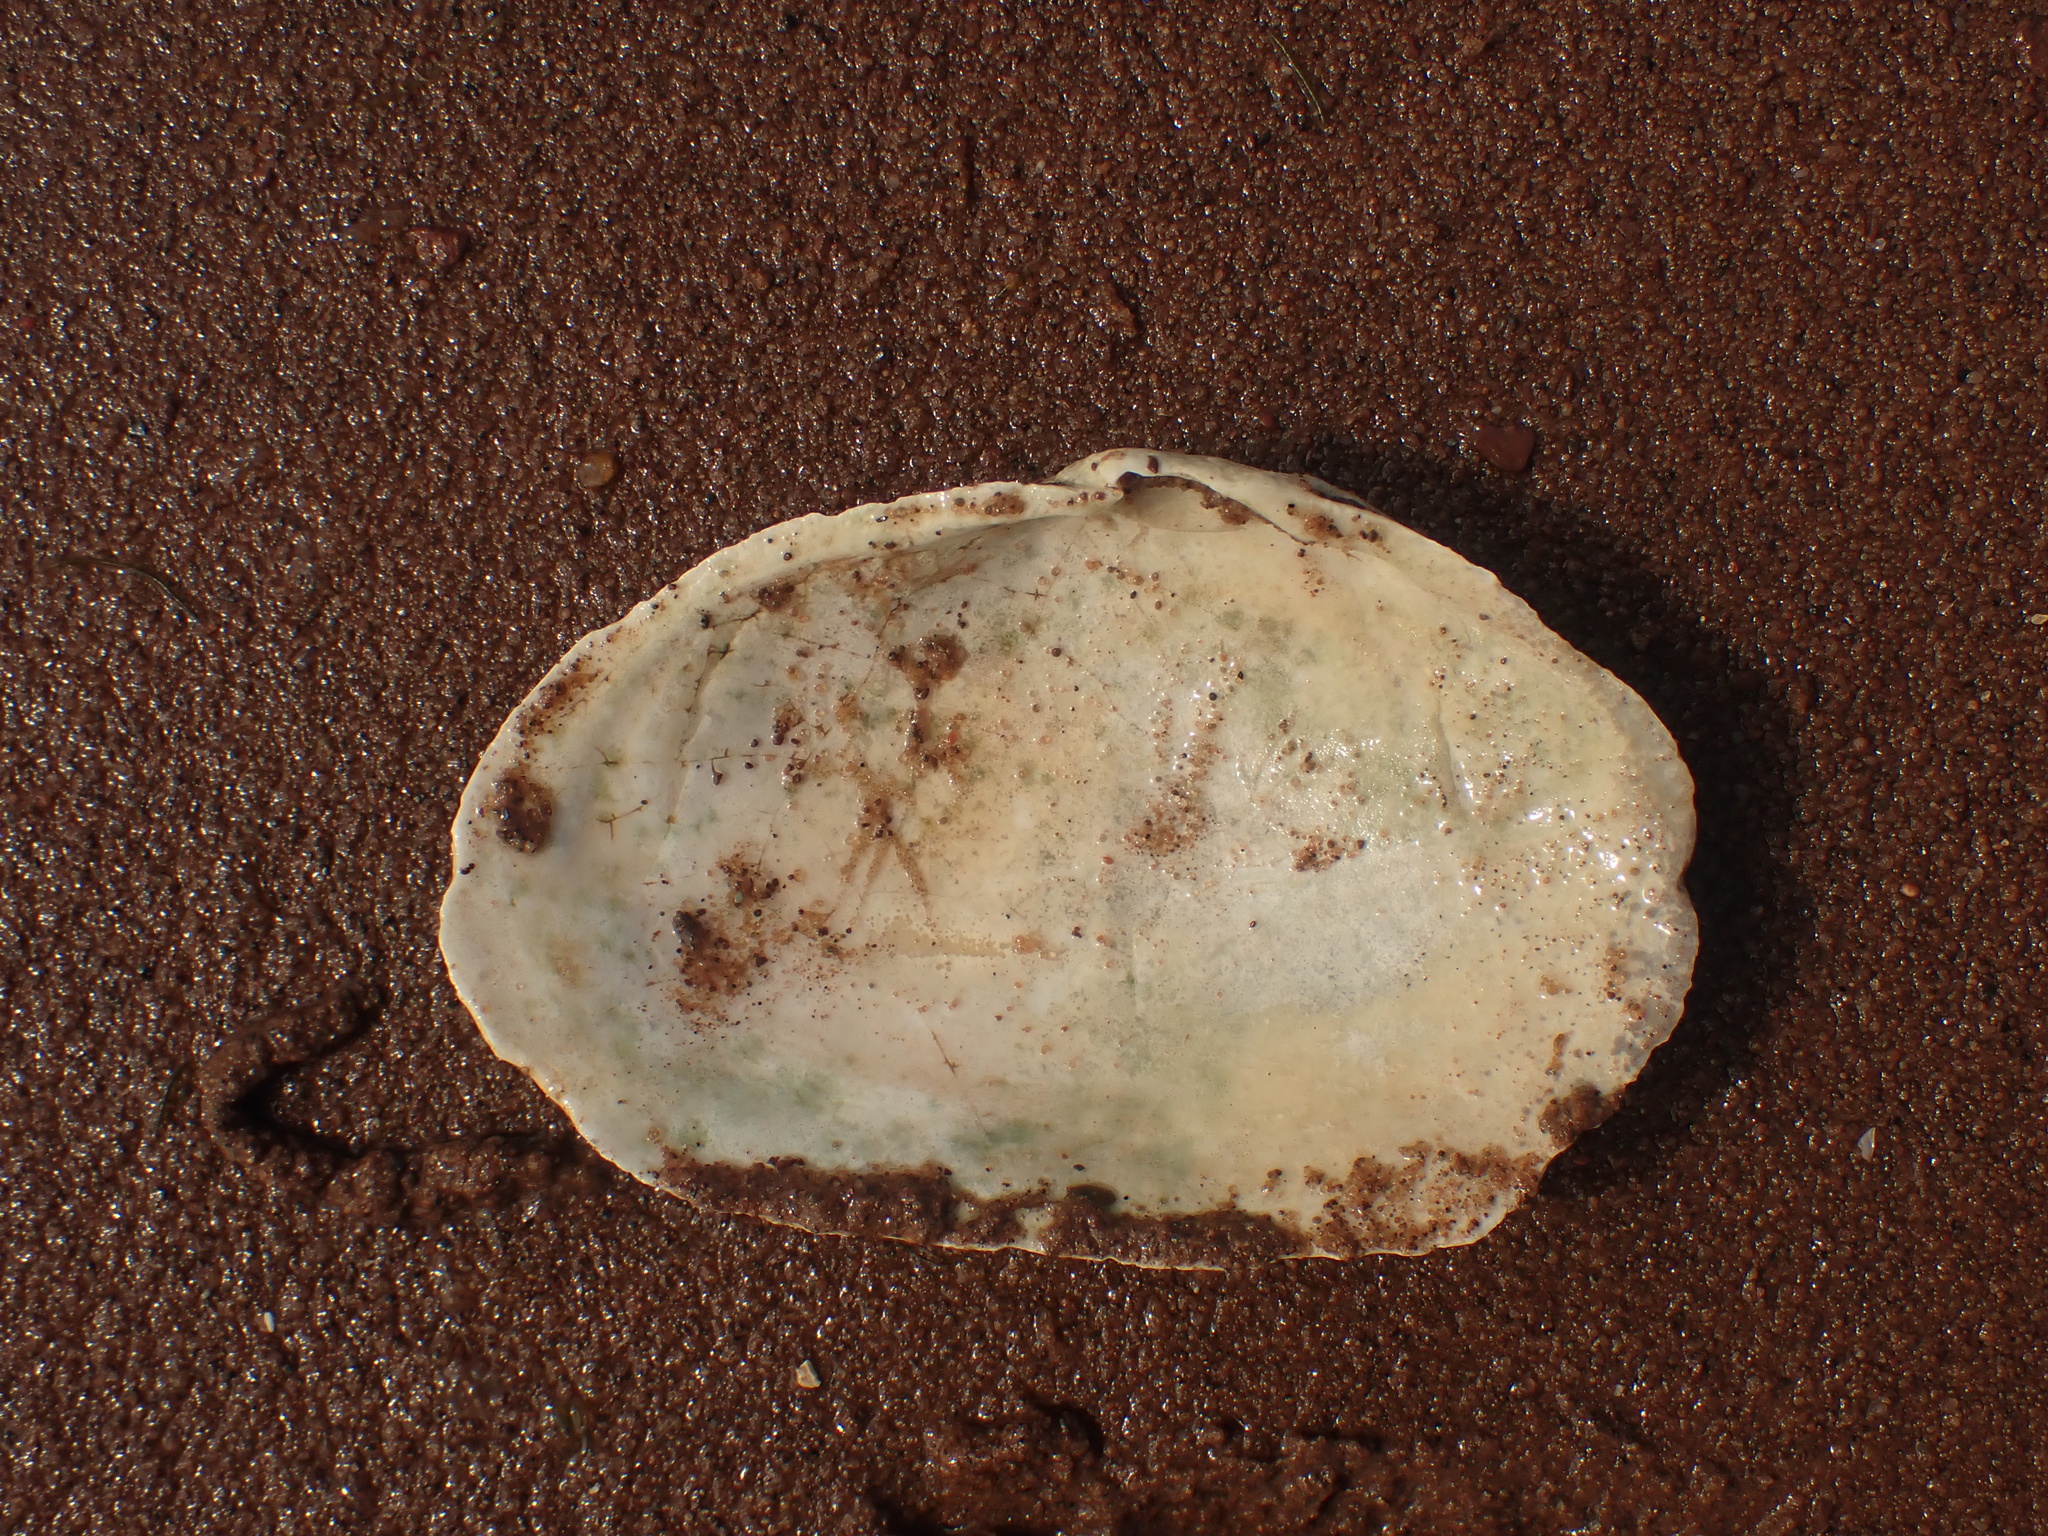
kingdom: Animalia
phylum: Mollusca
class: Bivalvia
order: Myida
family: Myidae
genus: Mya
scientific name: Mya arenaria
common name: Soft-shelled clam
